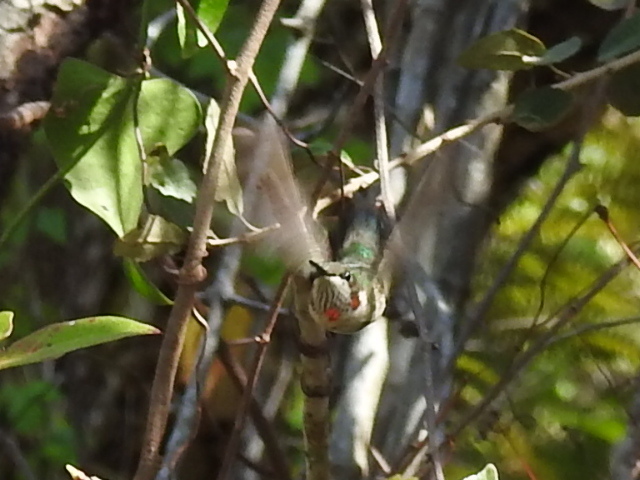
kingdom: Animalia
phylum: Chordata
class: Aves
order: Apodiformes
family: Trochilidae
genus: Archilochus
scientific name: Archilochus colubris
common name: Ruby-throated hummingbird
